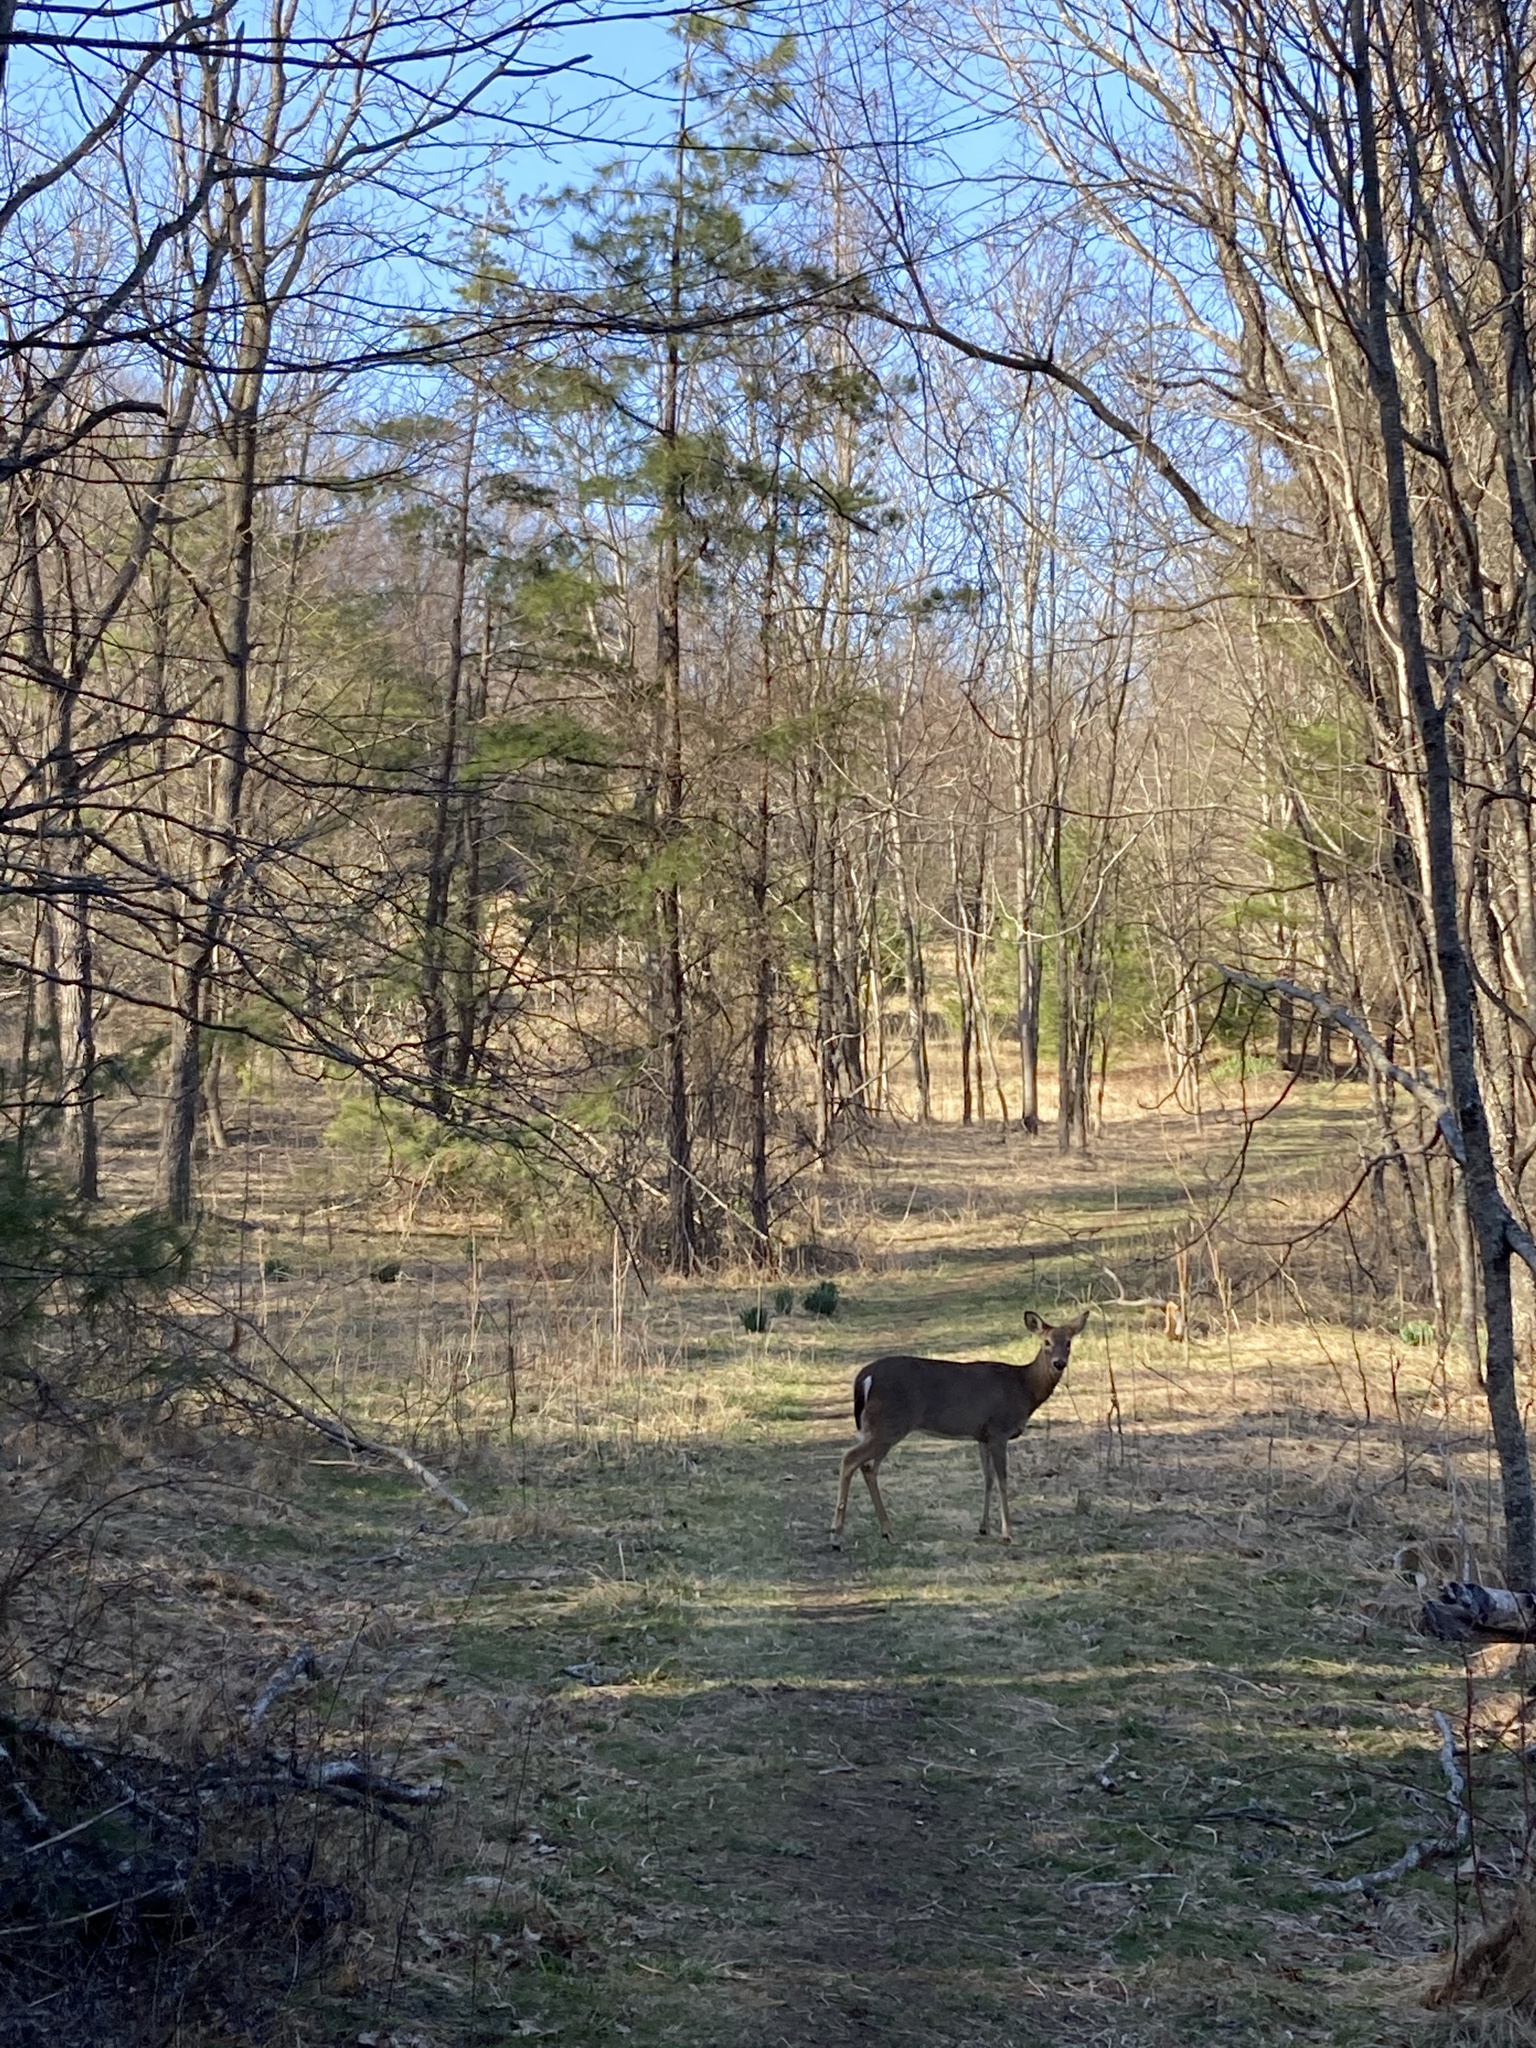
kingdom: Animalia
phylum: Chordata
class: Mammalia
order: Artiodactyla
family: Cervidae
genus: Odocoileus
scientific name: Odocoileus virginianus
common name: White-tailed deer
